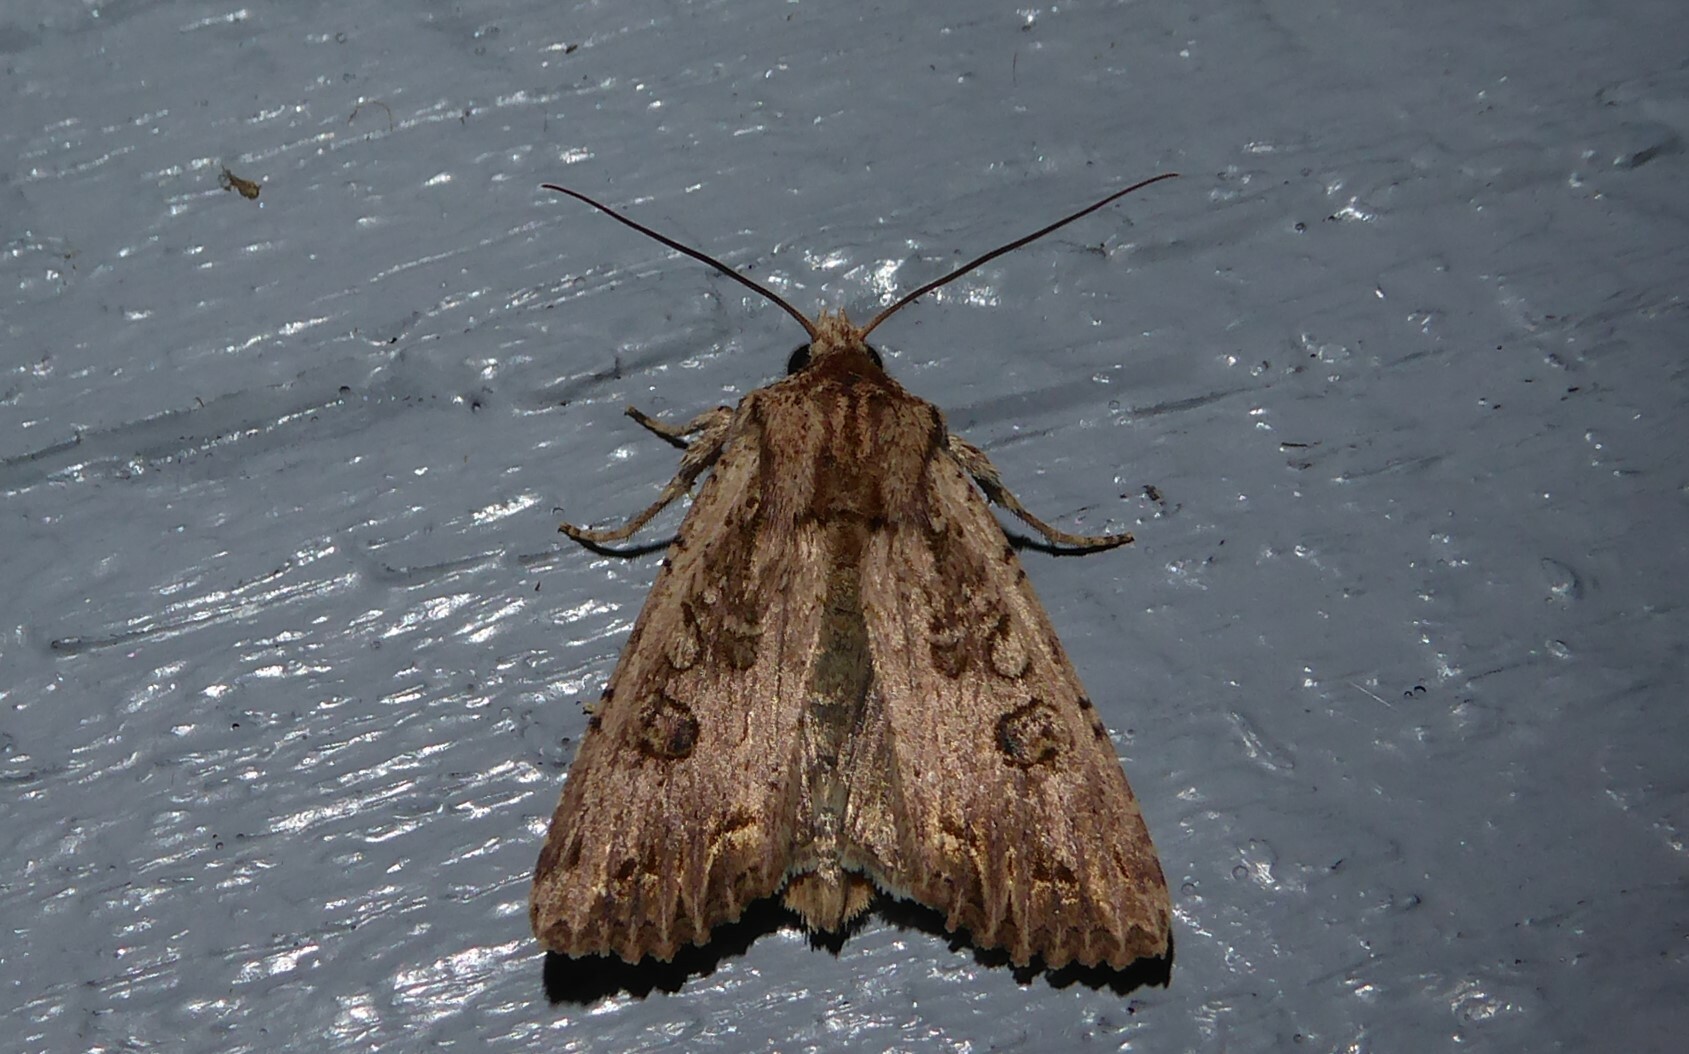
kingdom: Animalia
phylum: Arthropoda
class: Insecta
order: Lepidoptera
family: Noctuidae
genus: Ichneutica
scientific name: Ichneutica lignana
